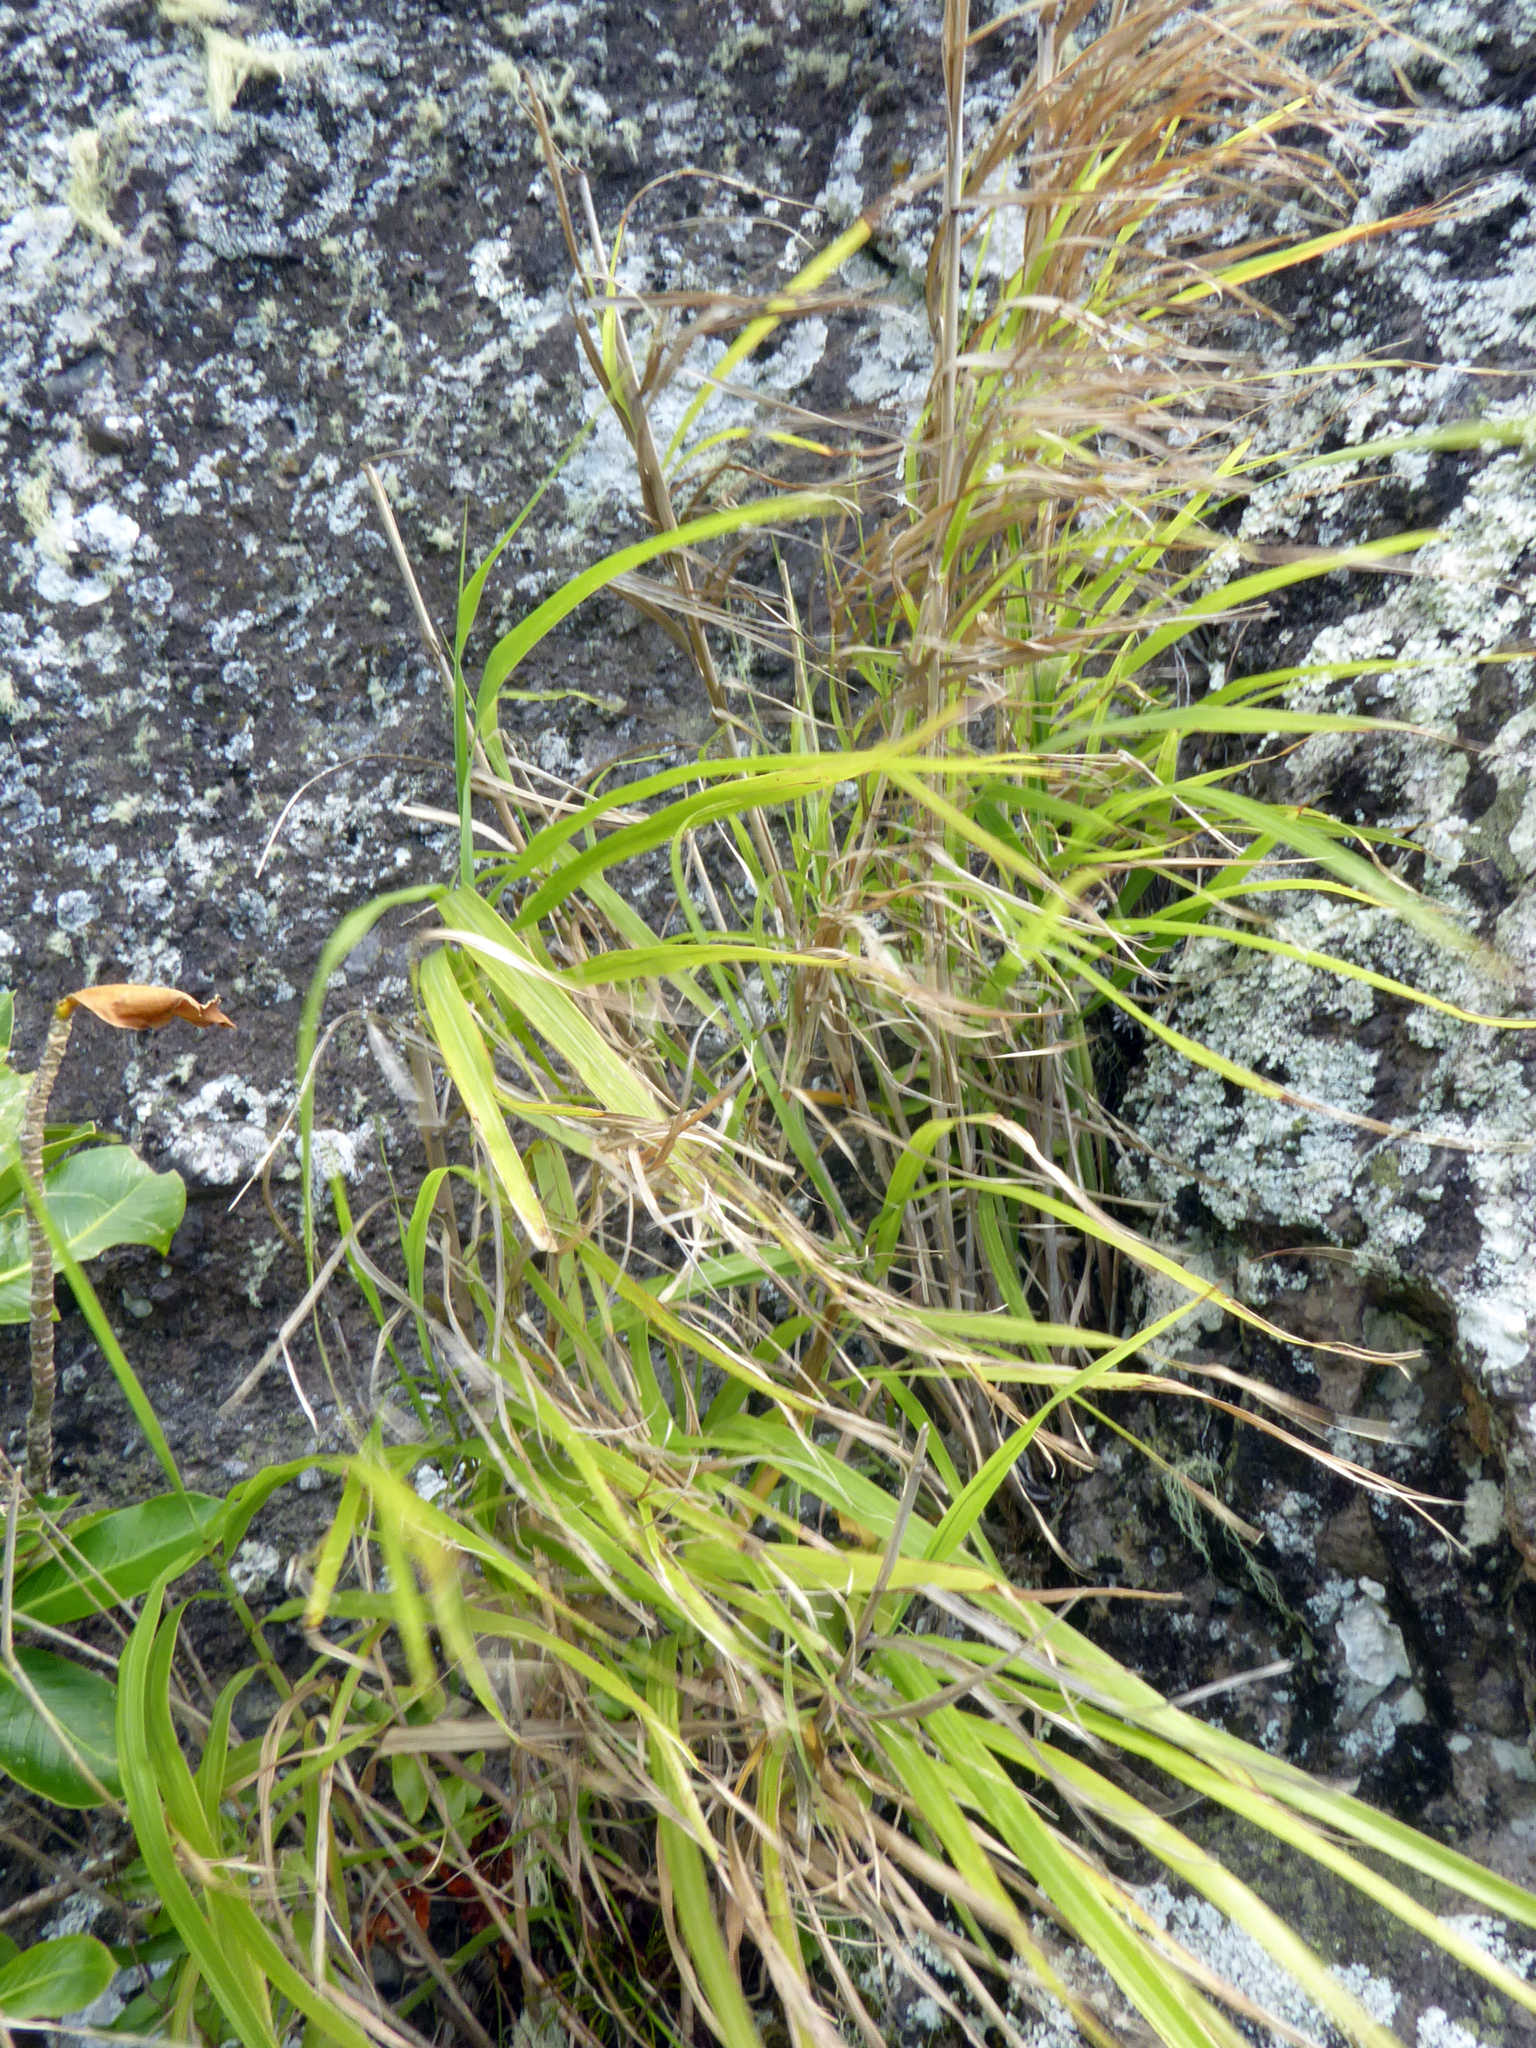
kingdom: Plantae
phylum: Tracheophyta
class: Liliopsida
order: Poales
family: Poaceae
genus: Miscanthus
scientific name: Miscanthus floridulus
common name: Pacific island silvergrass
